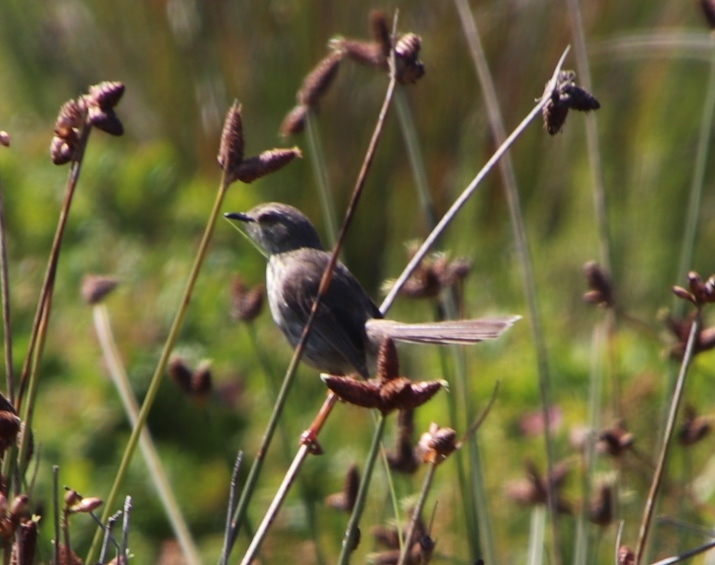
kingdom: Animalia
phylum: Chordata
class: Aves
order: Passeriformes
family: Cisticolidae
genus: Prinia
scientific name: Prinia maculosa
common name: Karoo prinia
